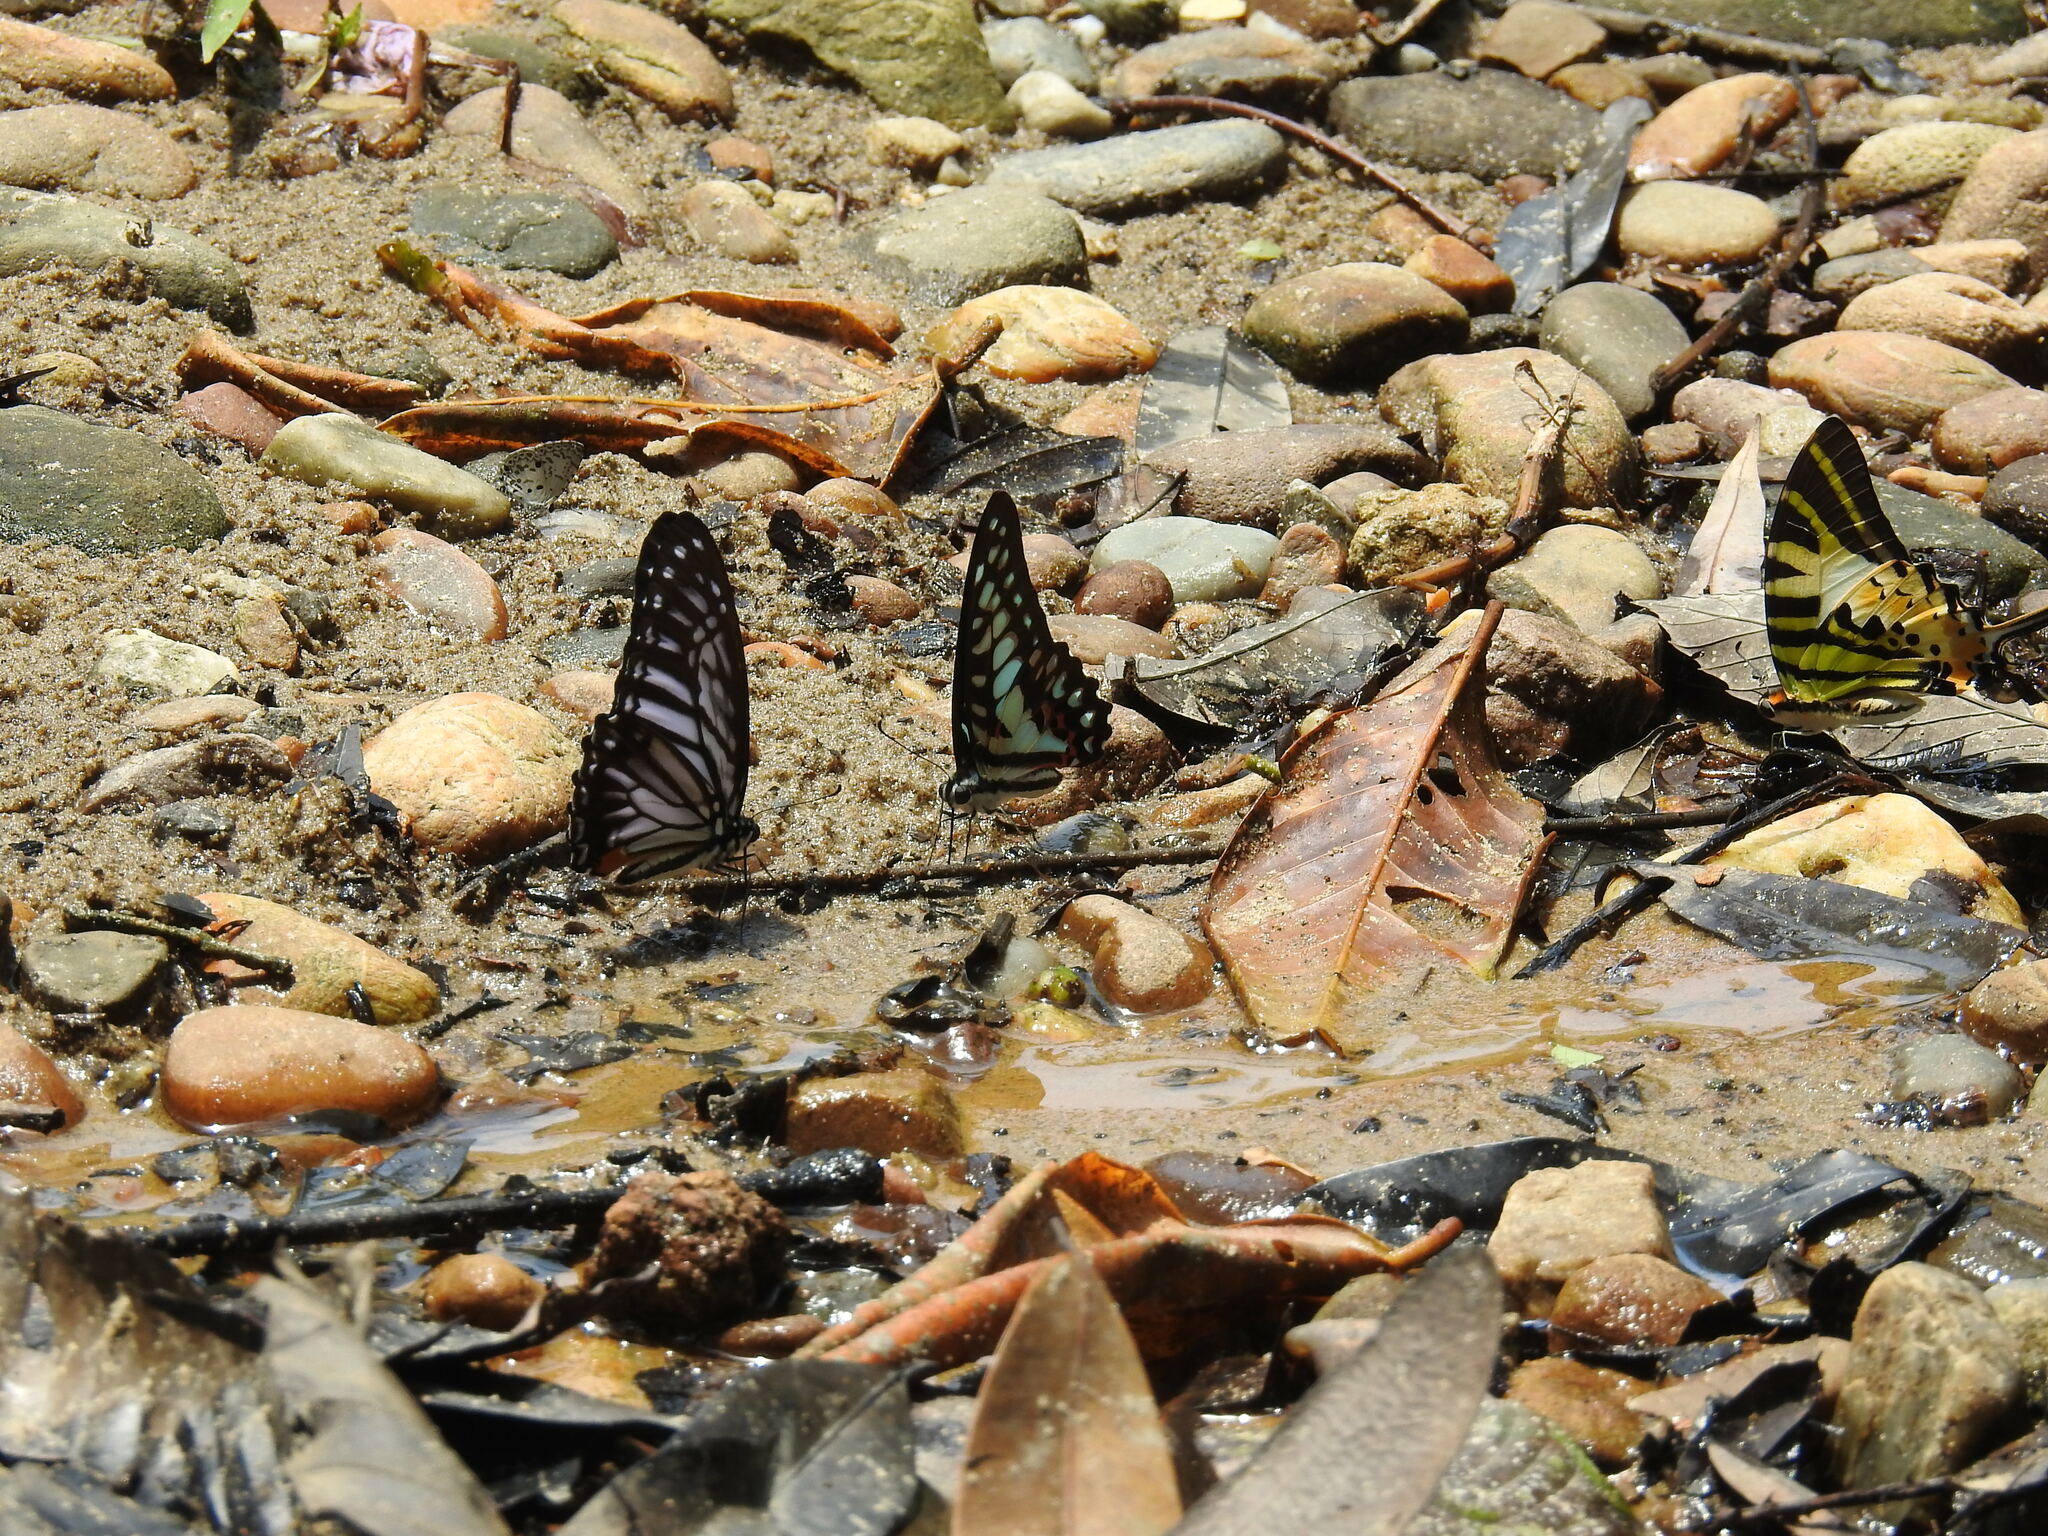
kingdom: Animalia
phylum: Arthropoda
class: Insecta
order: Lepidoptera
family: Papilionidae
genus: Graphium
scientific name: Graphium antiphates
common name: Fivebar swordtail
